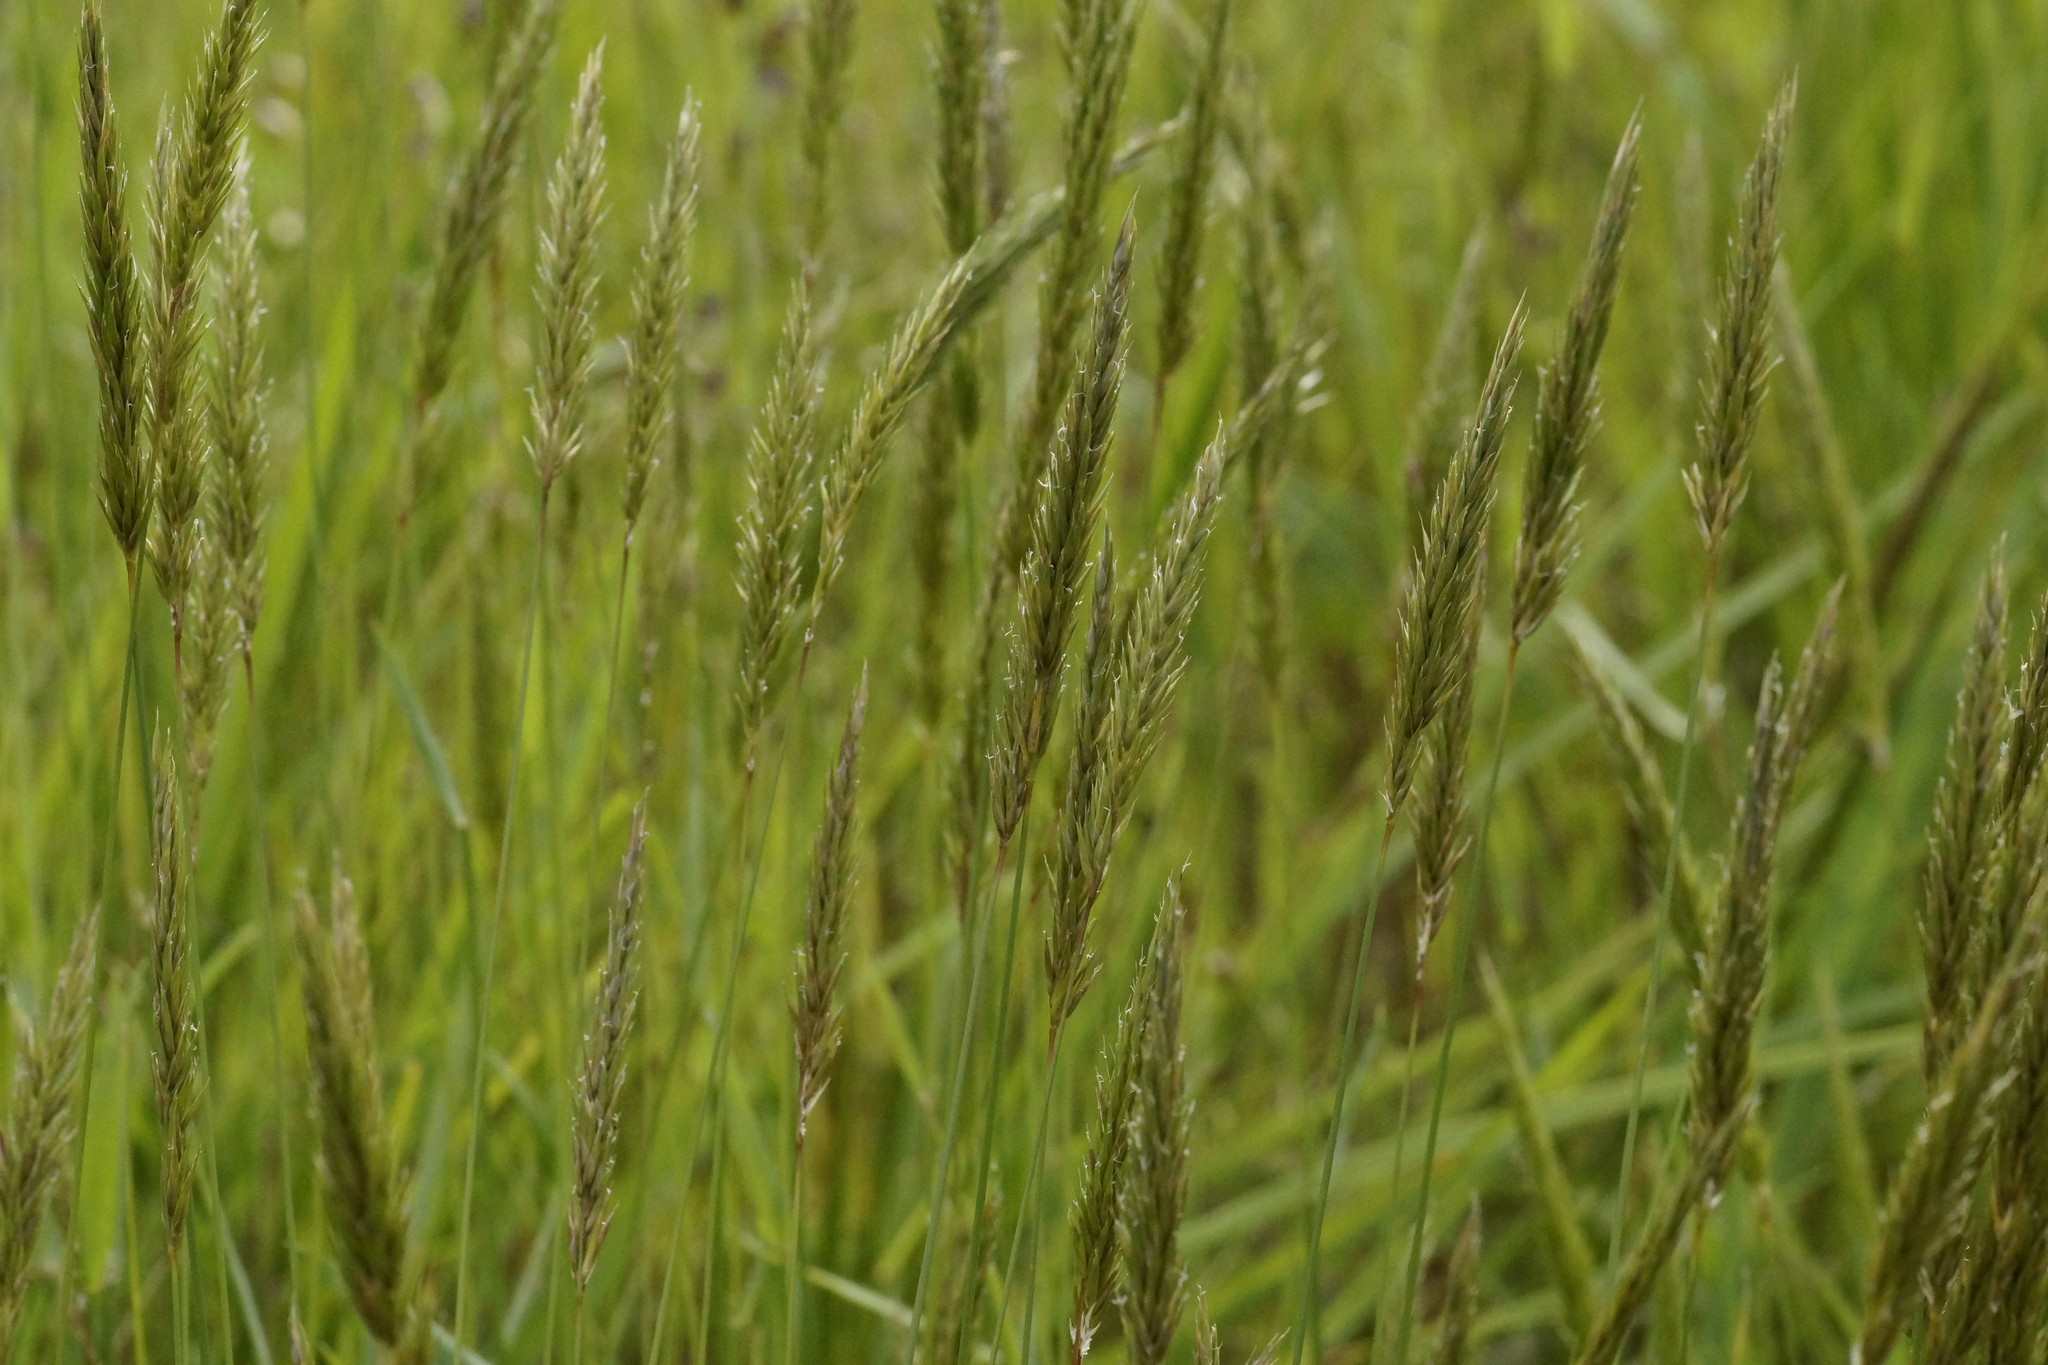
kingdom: Plantae
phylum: Tracheophyta
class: Liliopsida
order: Poales
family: Poaceae
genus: Anthoxanthum
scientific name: Anthoxanthum odoratum
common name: Sweet vernalgrass
